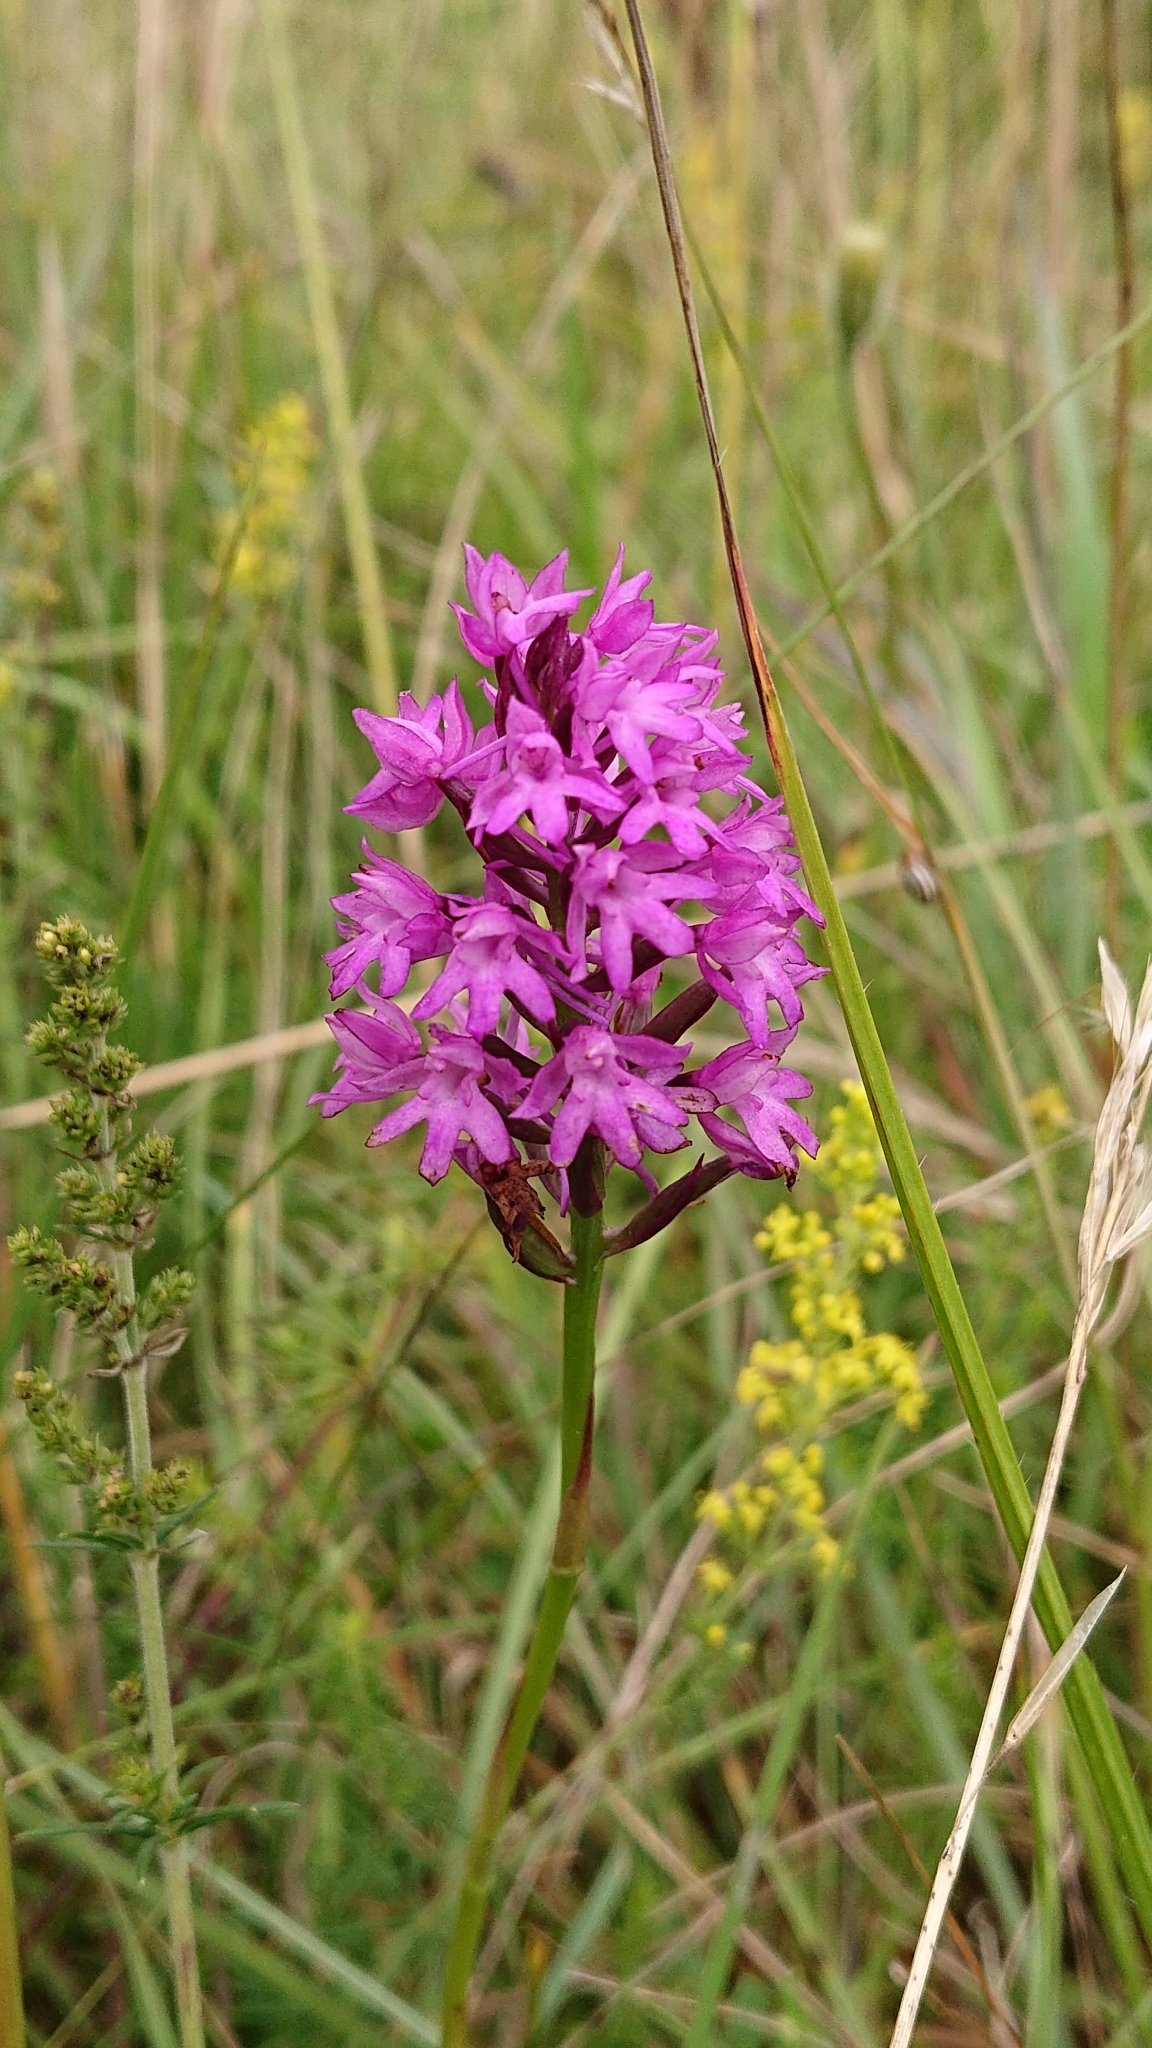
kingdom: Plantae
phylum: Tracheophyta
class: Liliopsida
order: Asparagales
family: Orchidaceae
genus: Anacamptis
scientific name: Anacamptis pyramidalis
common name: Pyramidal orchid
